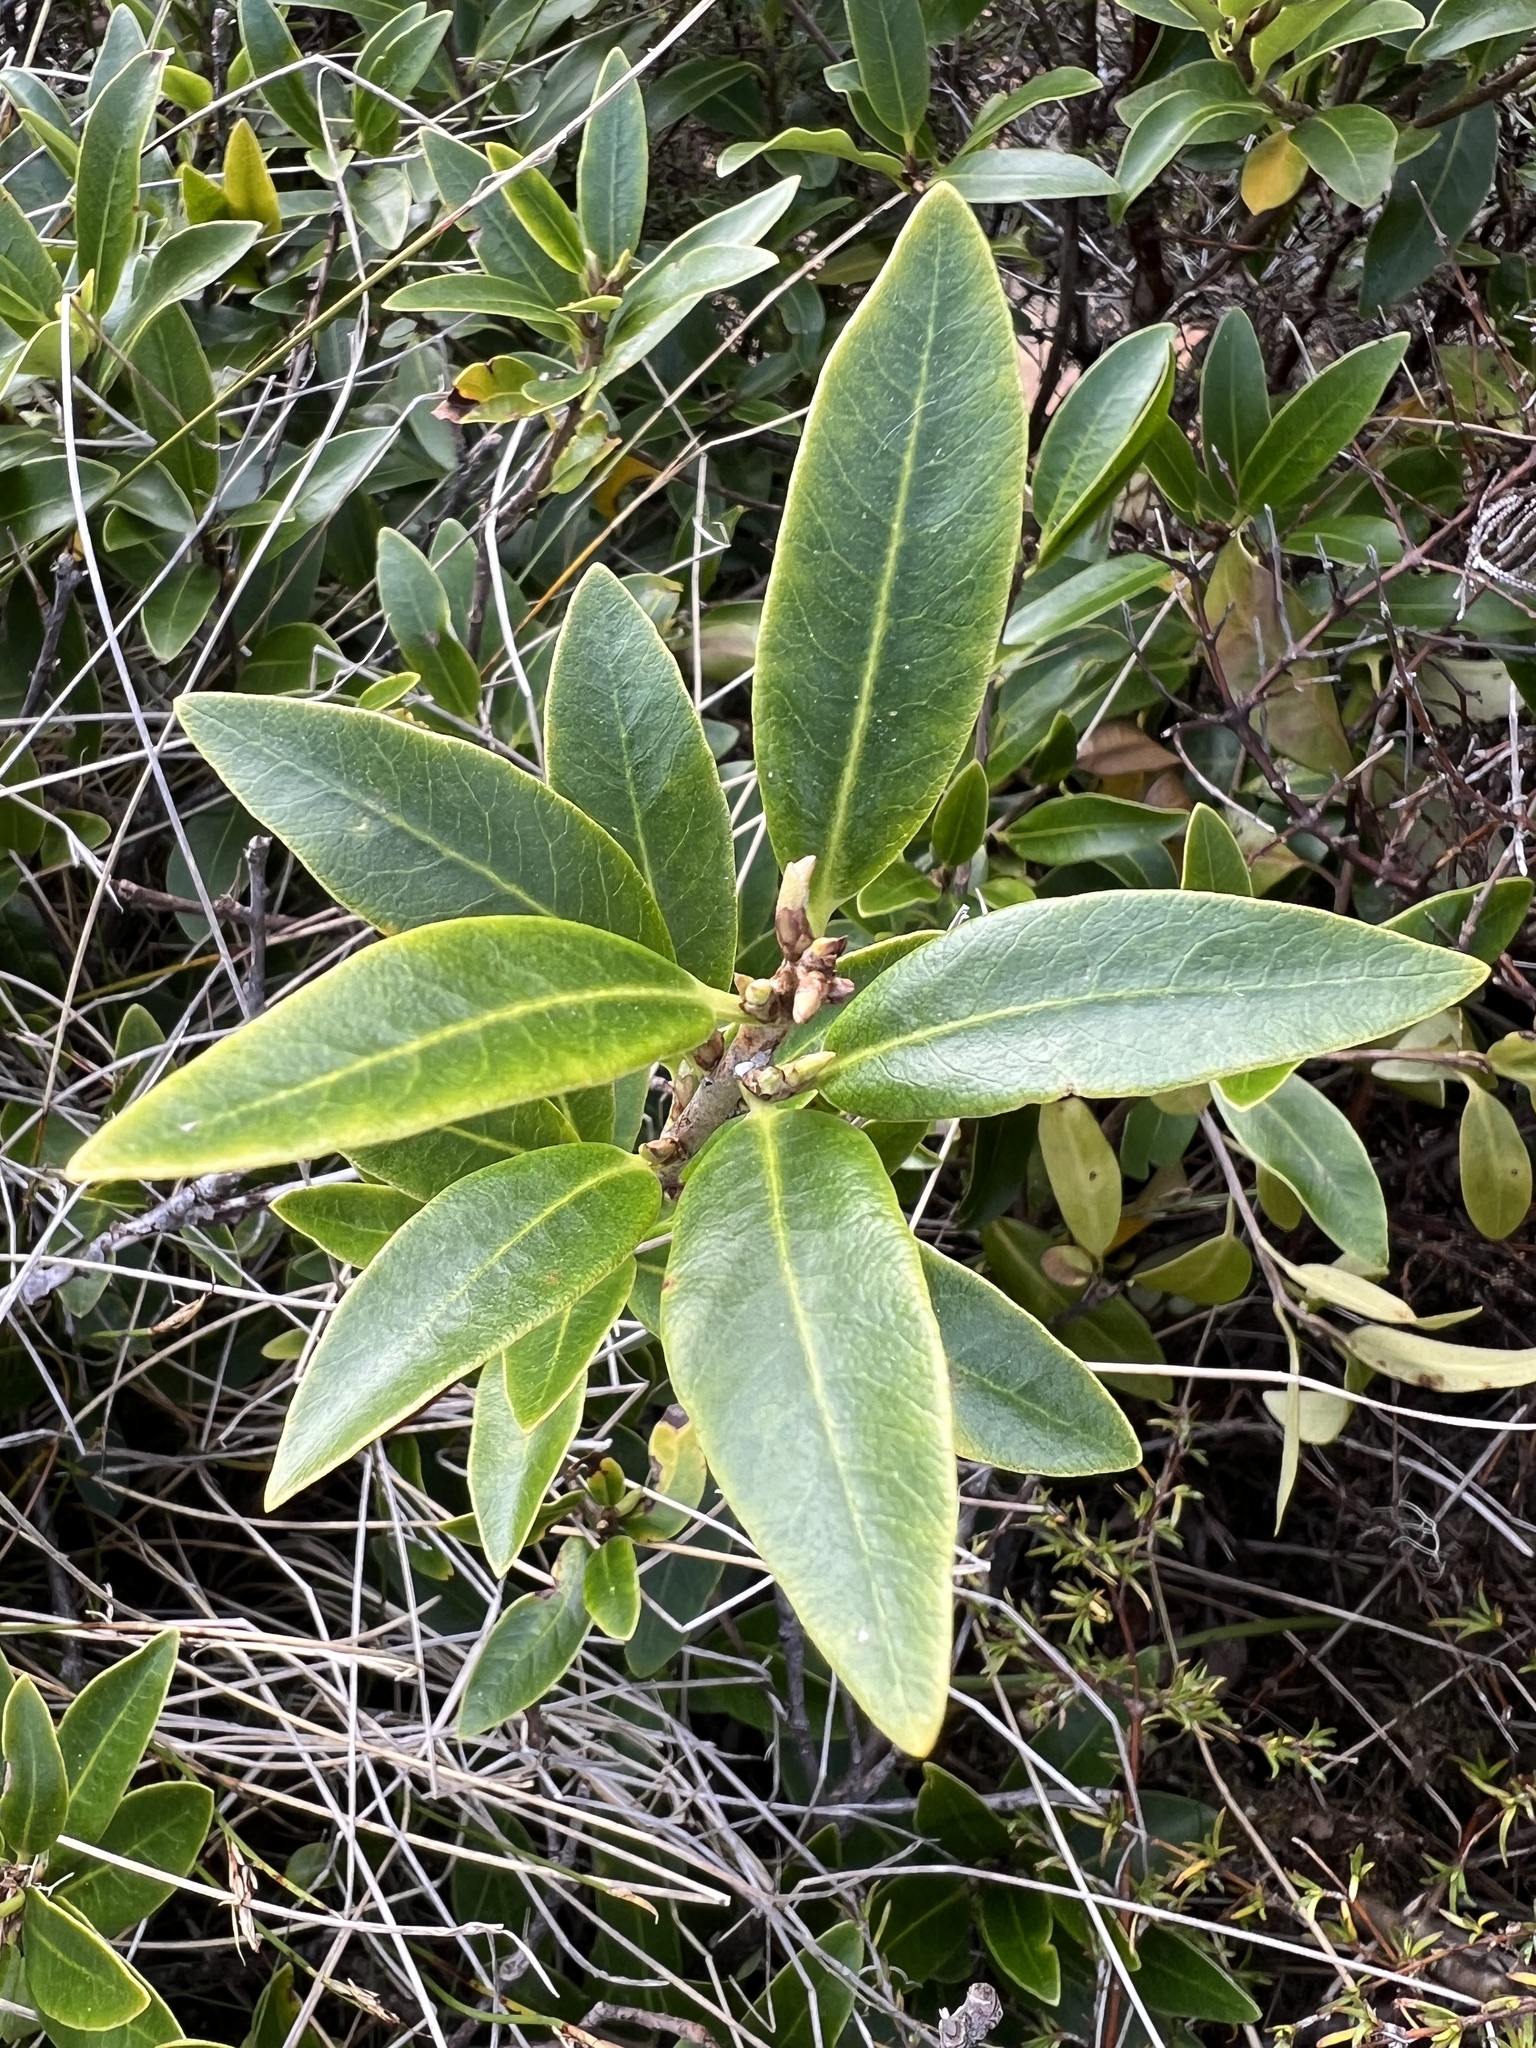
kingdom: Plantae
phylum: Tracheophyta
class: Magnoliopsida
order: Apiales
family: Pittosporaceae
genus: Pittosporum
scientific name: Pittosporum colensoi
